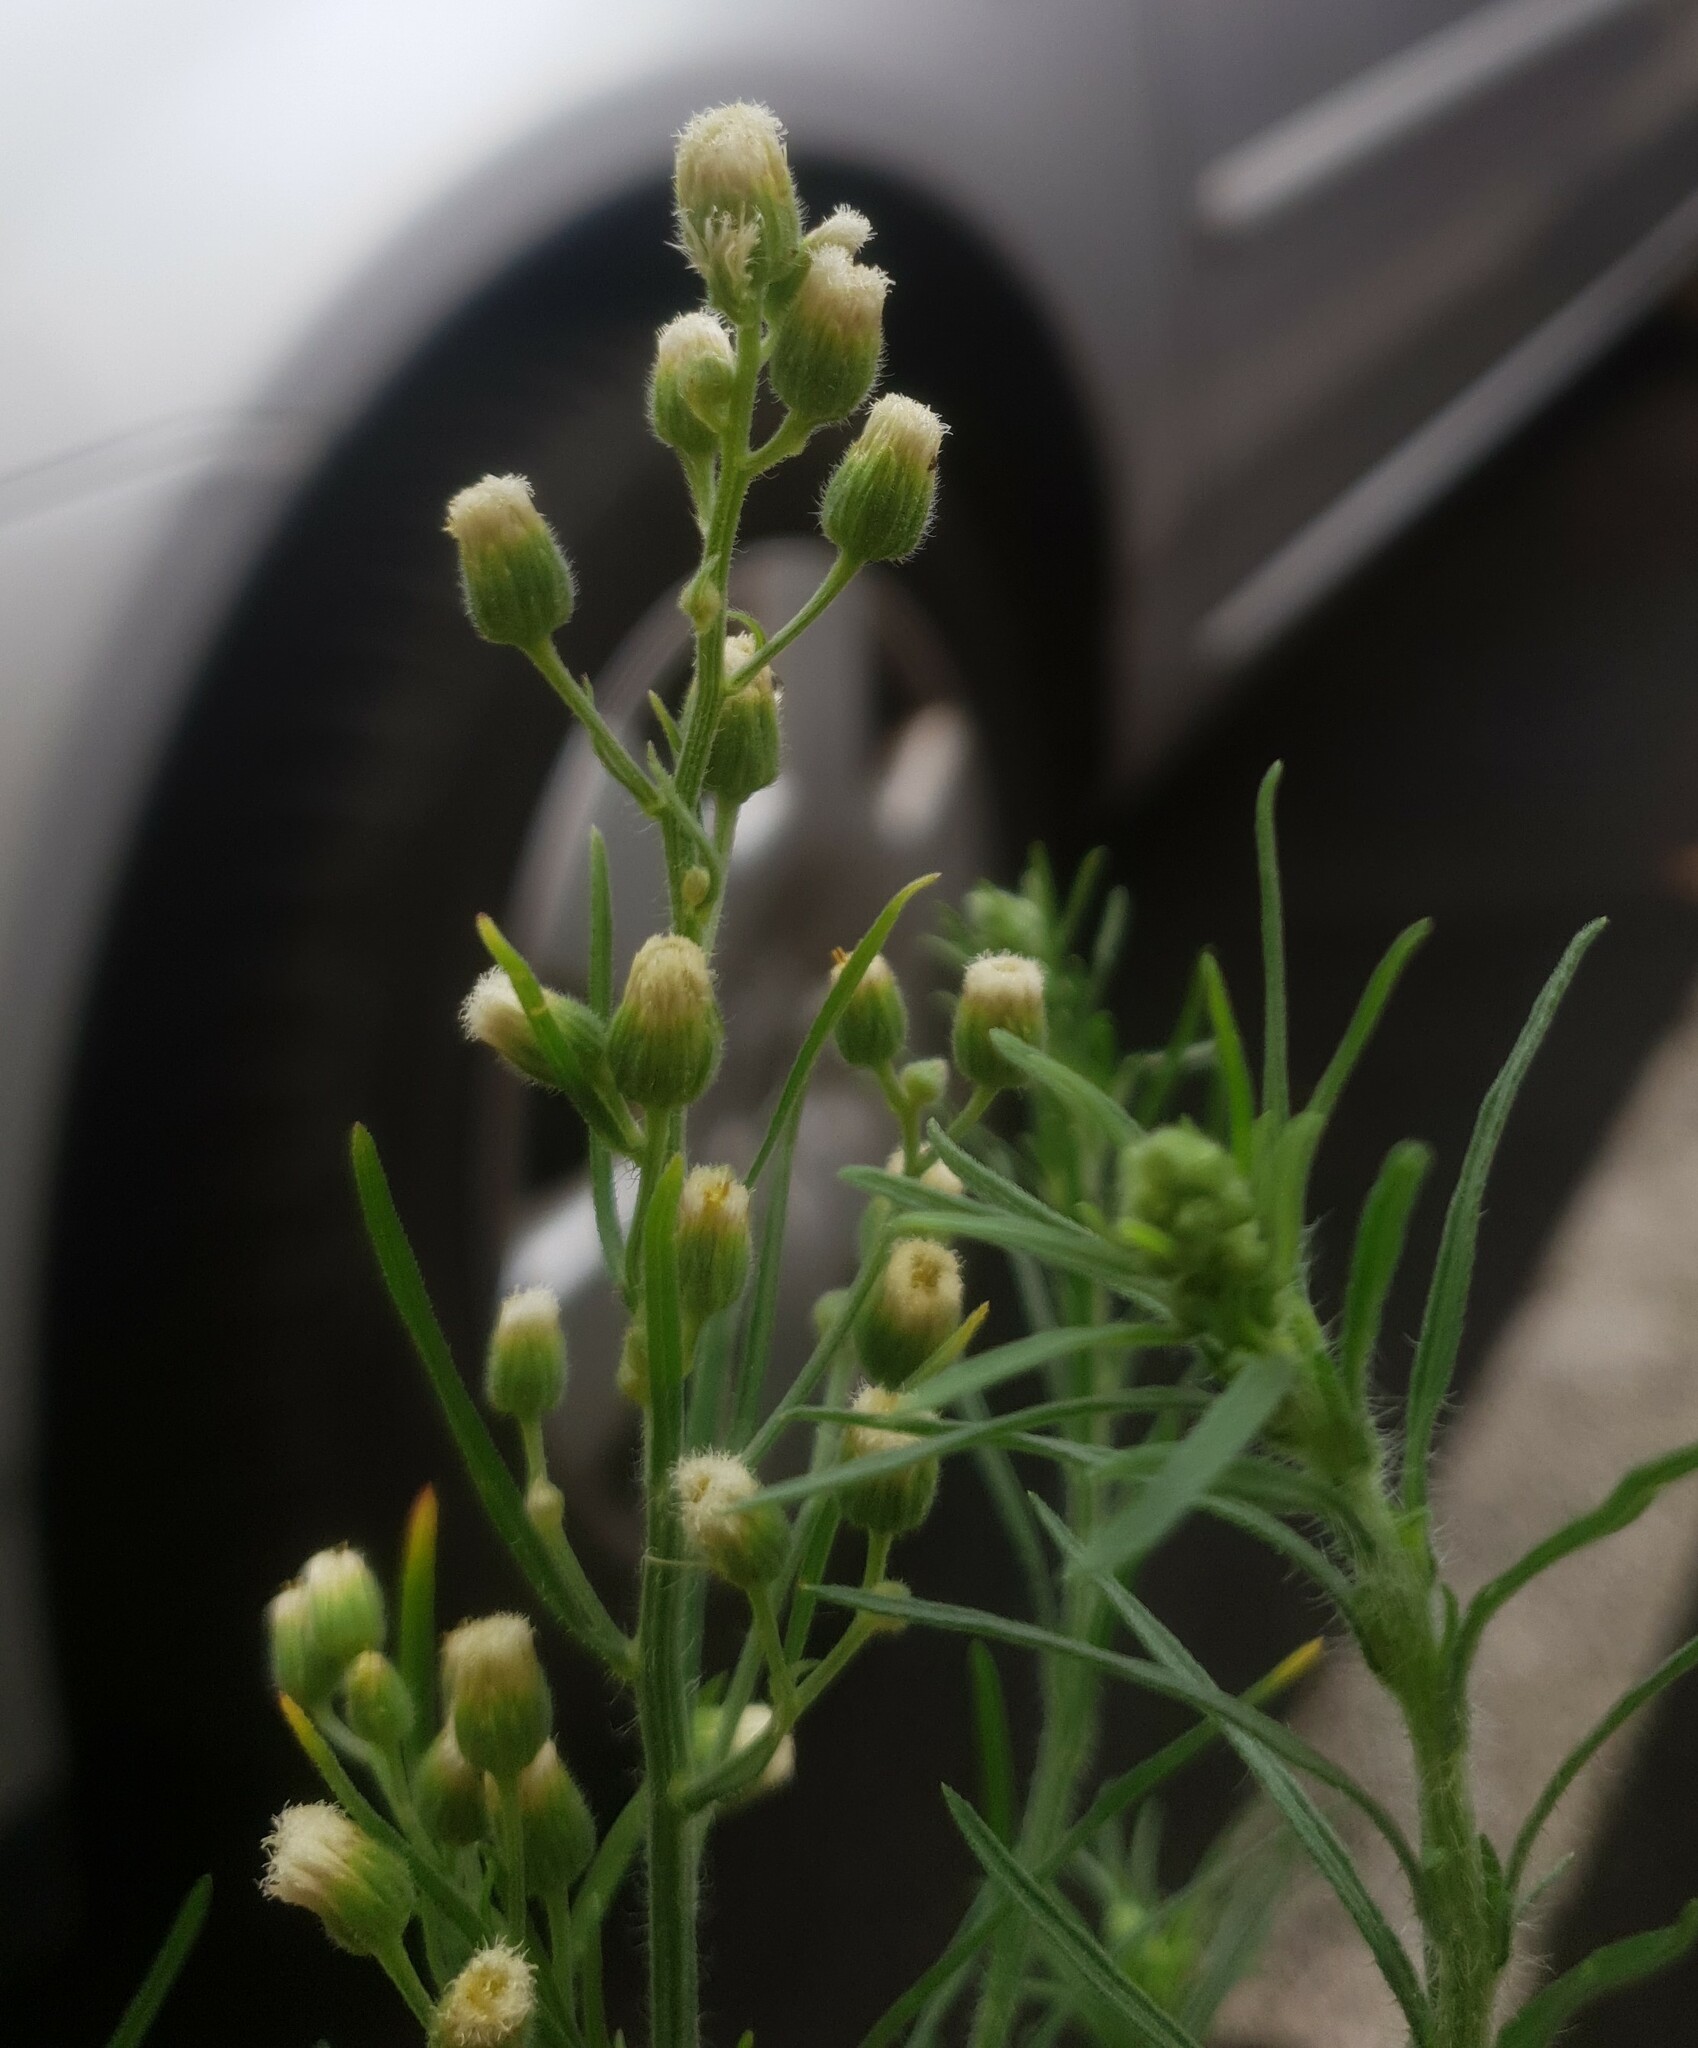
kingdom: Plantae
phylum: Tracheophyta
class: Magnoliopsida
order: Asterales
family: Asteraceae
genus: Erigeron
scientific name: Erigeron bonariensis
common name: Argentine fleabane
